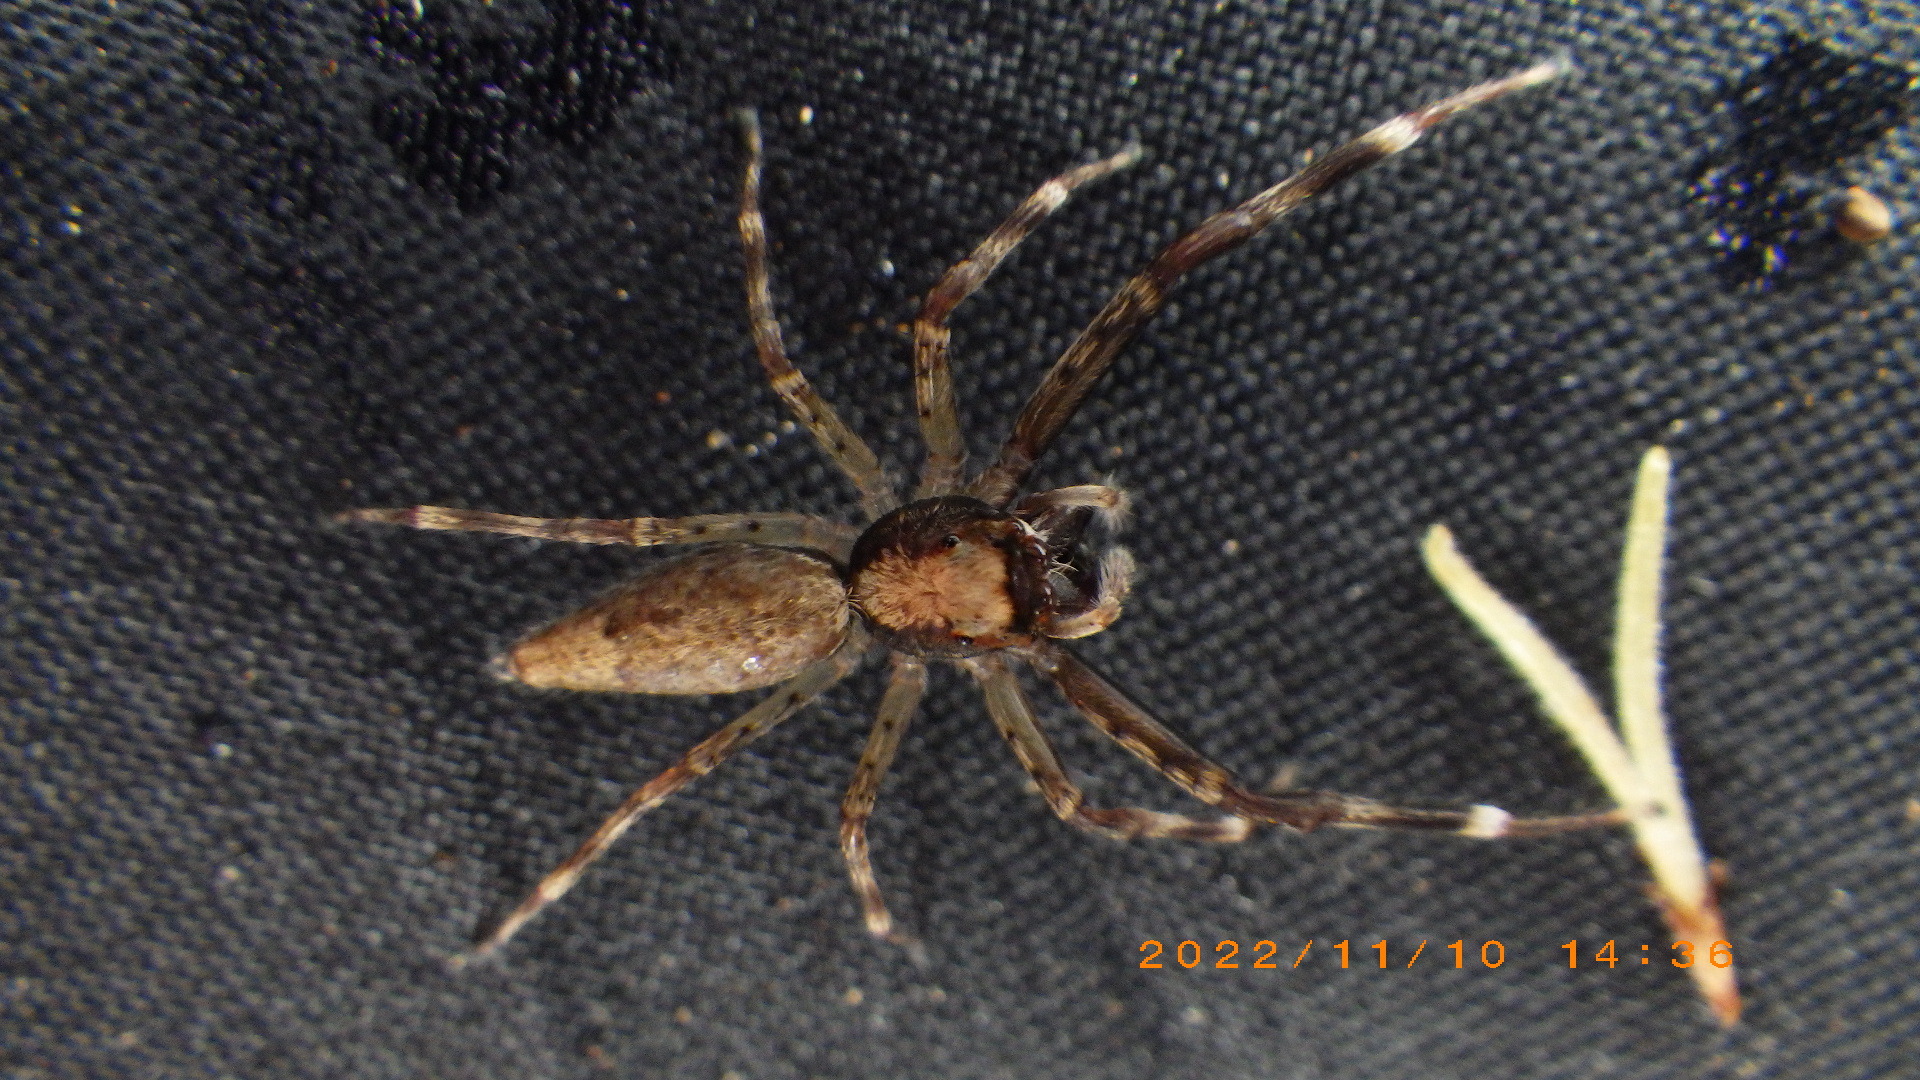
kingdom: Animalia
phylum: Arthropoda
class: Arachnida
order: Araneae
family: Salticidae
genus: Helpis
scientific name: Helpis minitabunda
